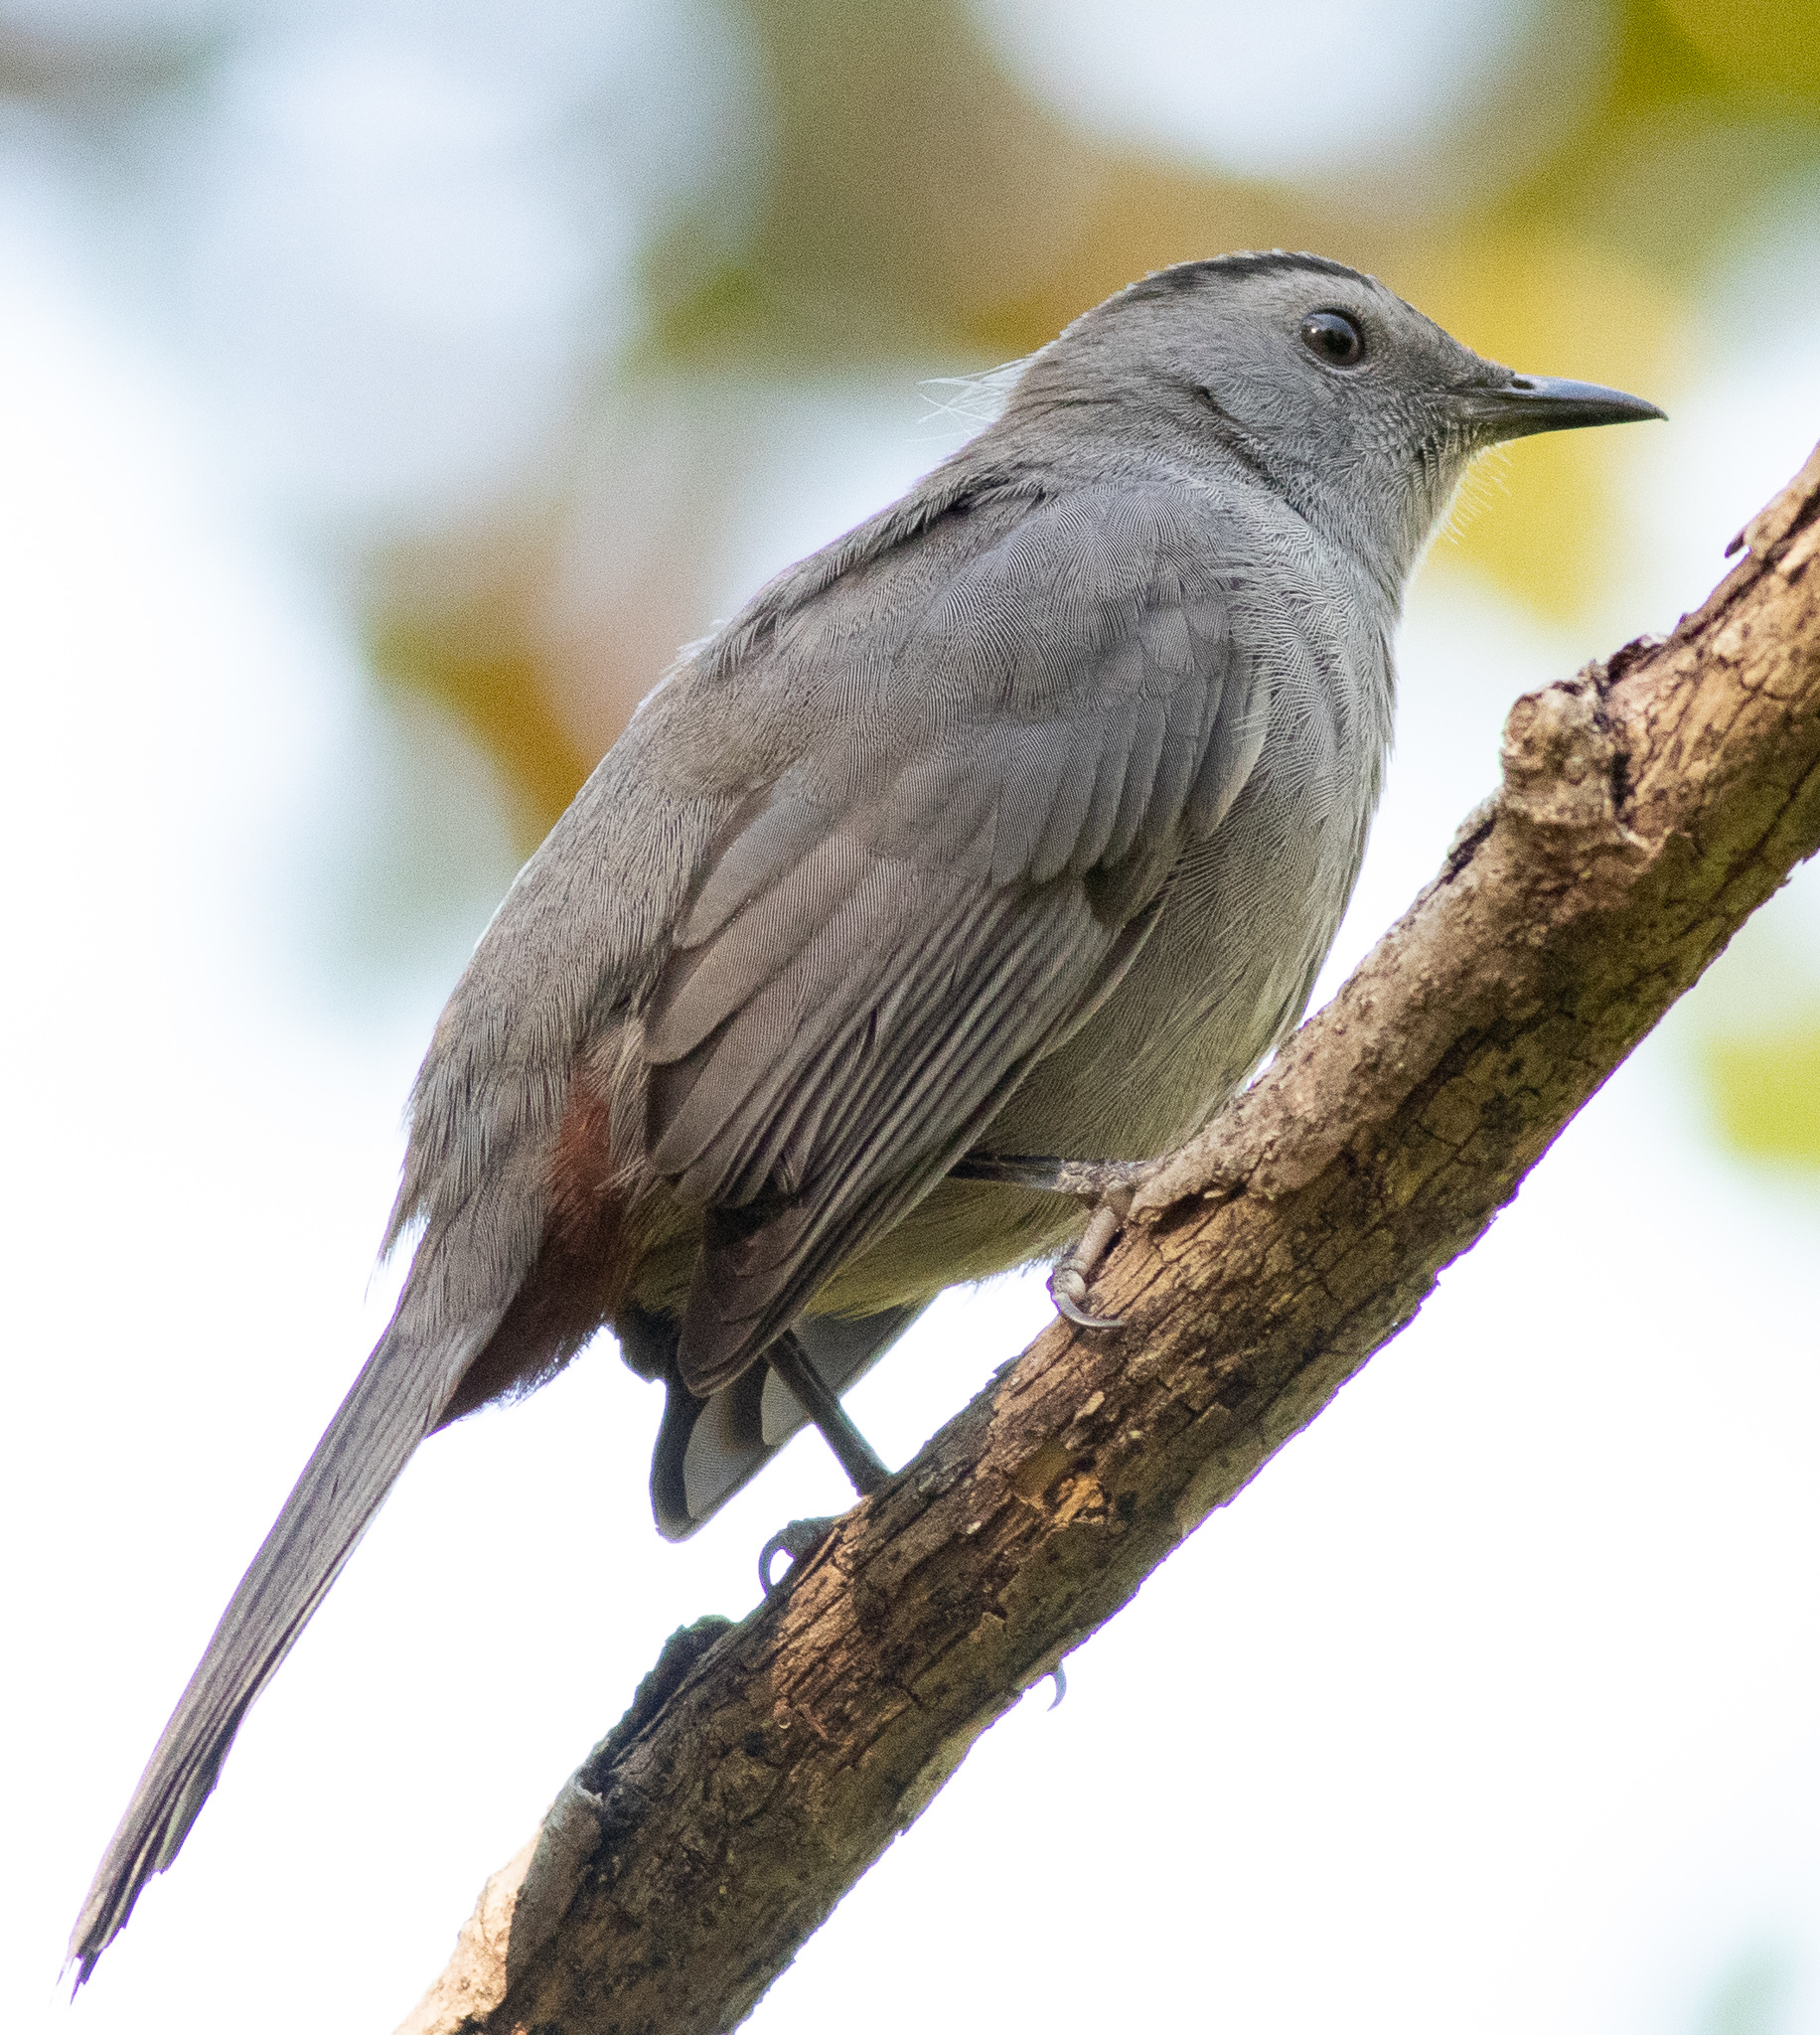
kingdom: Animalia
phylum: Chordata
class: Aves
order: Passeriformes
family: Mimidae
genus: Dumetella
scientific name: Dumetella carolinensis
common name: Gray catbird
